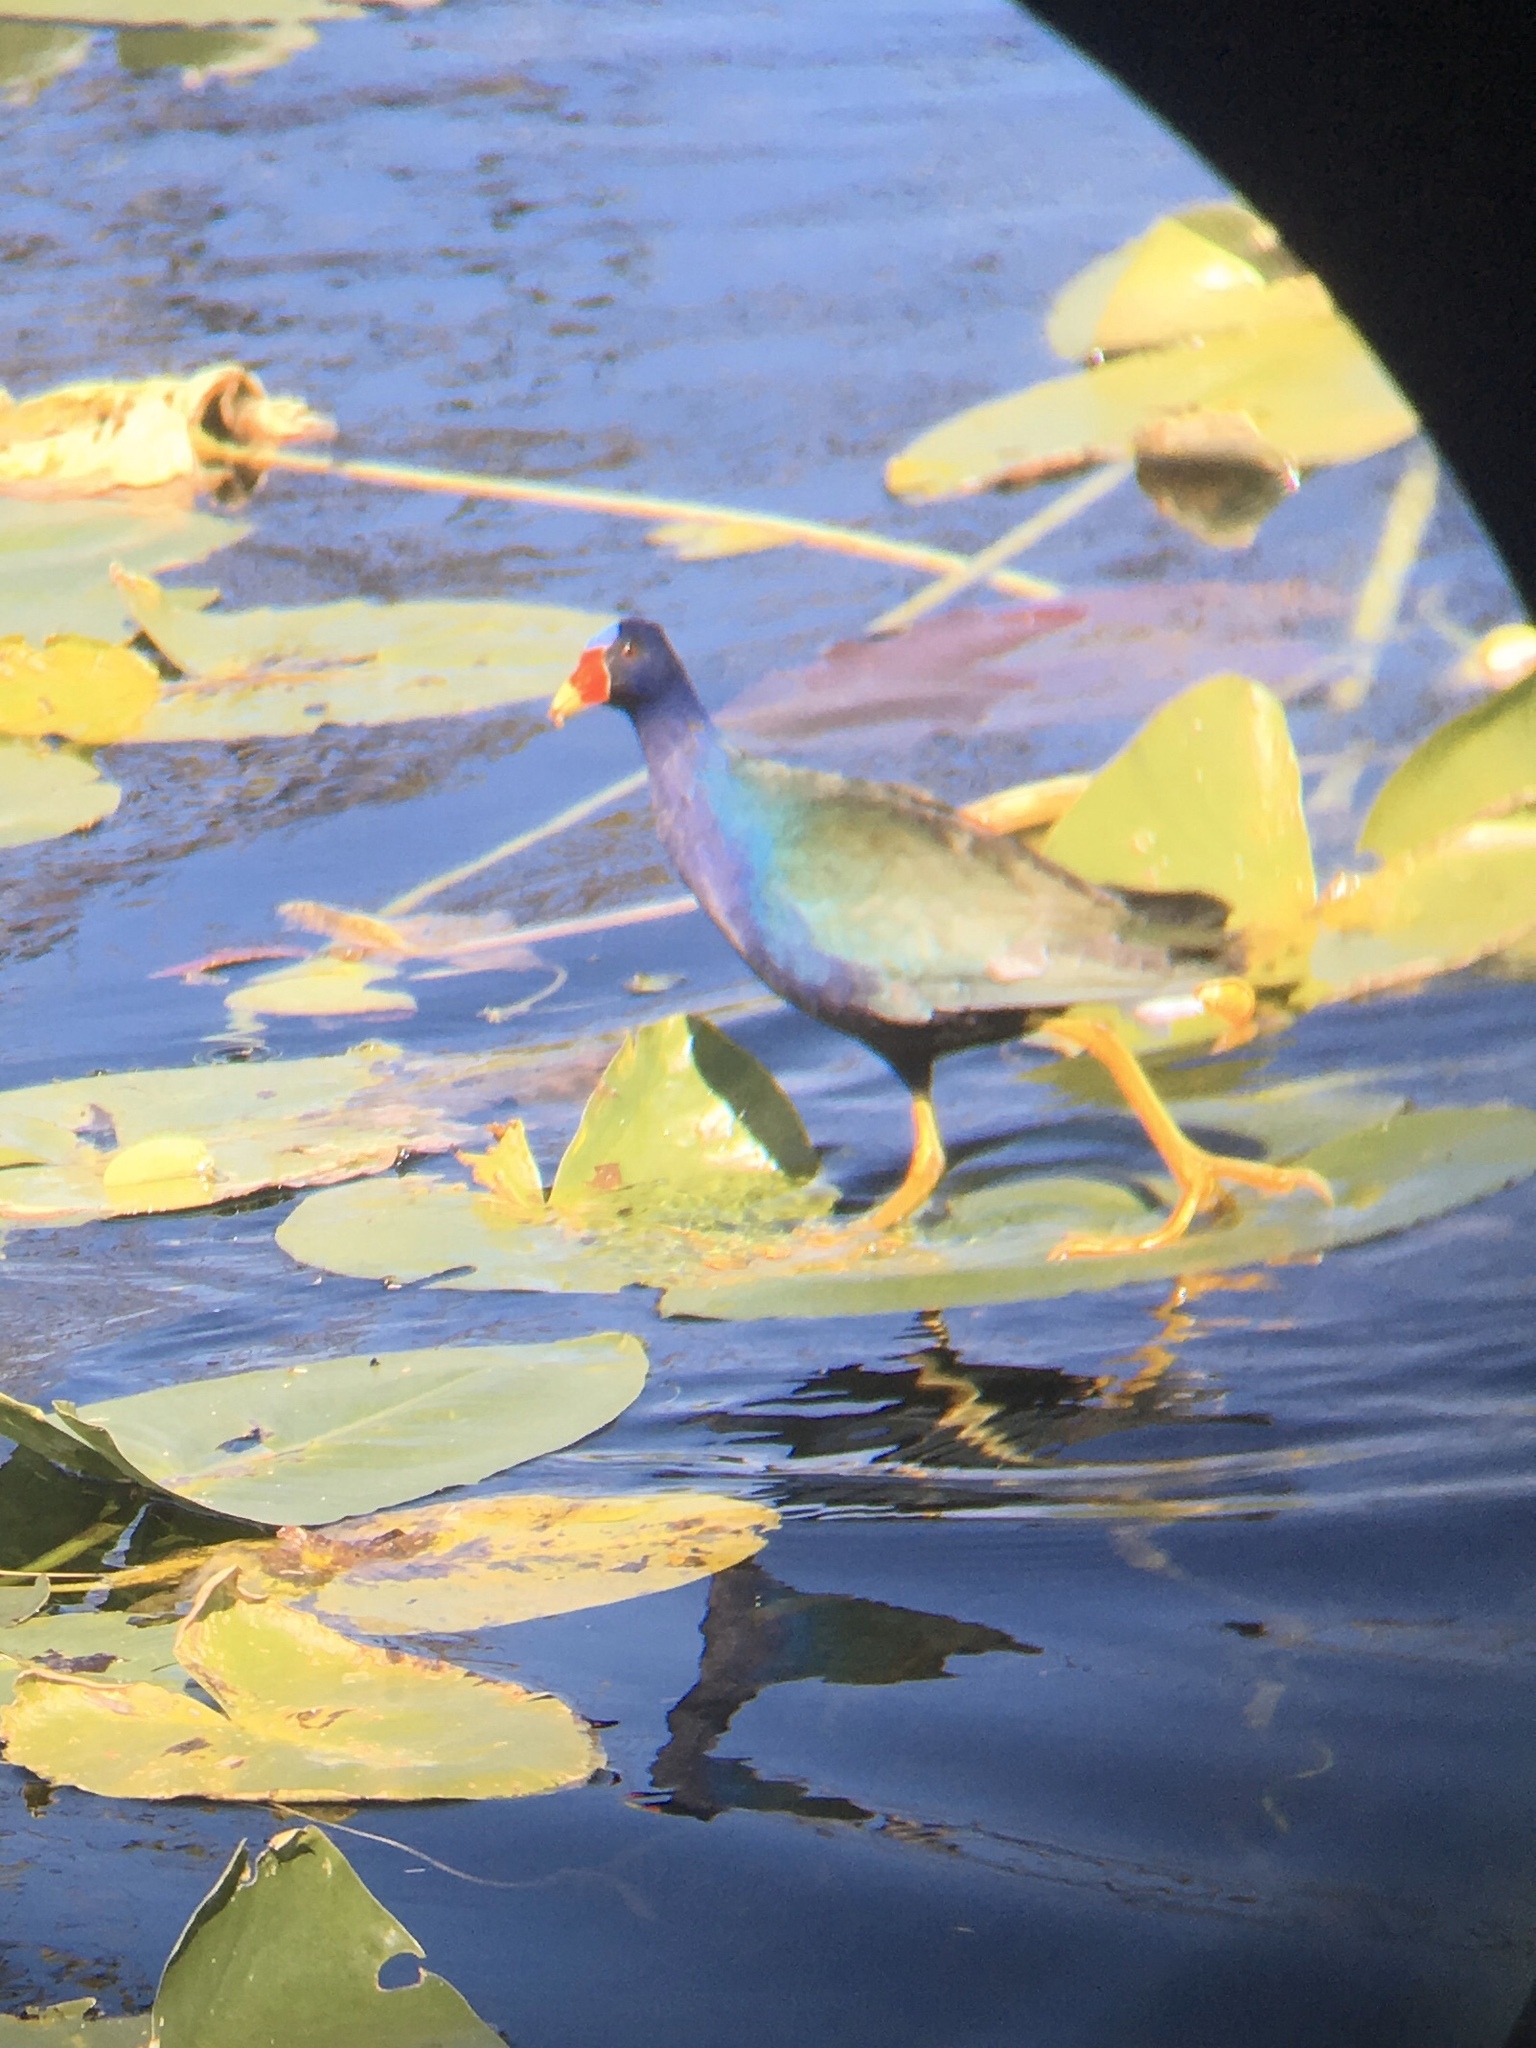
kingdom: Animalia
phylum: Chordata
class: Aves
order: Gruiformes
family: Rallidae
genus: Porphyrio
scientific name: Porphyrio martinica
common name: Purple gallinule
